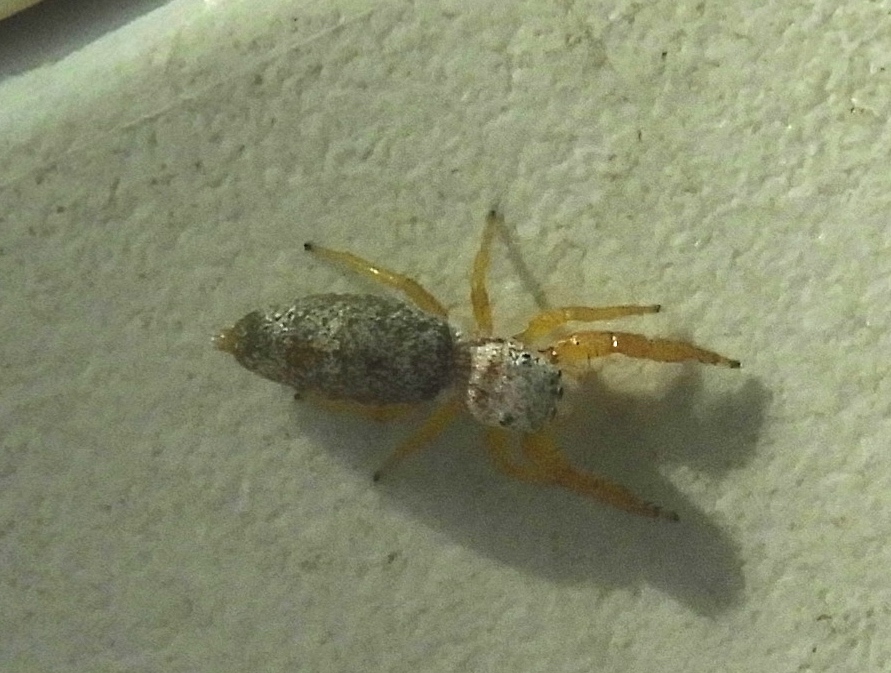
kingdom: Animalia
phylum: Arthropoda
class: Arachnida
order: Araneae
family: Salticidae
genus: Hentzia
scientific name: Hentzia palmarum
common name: Common hentz jumping spider
